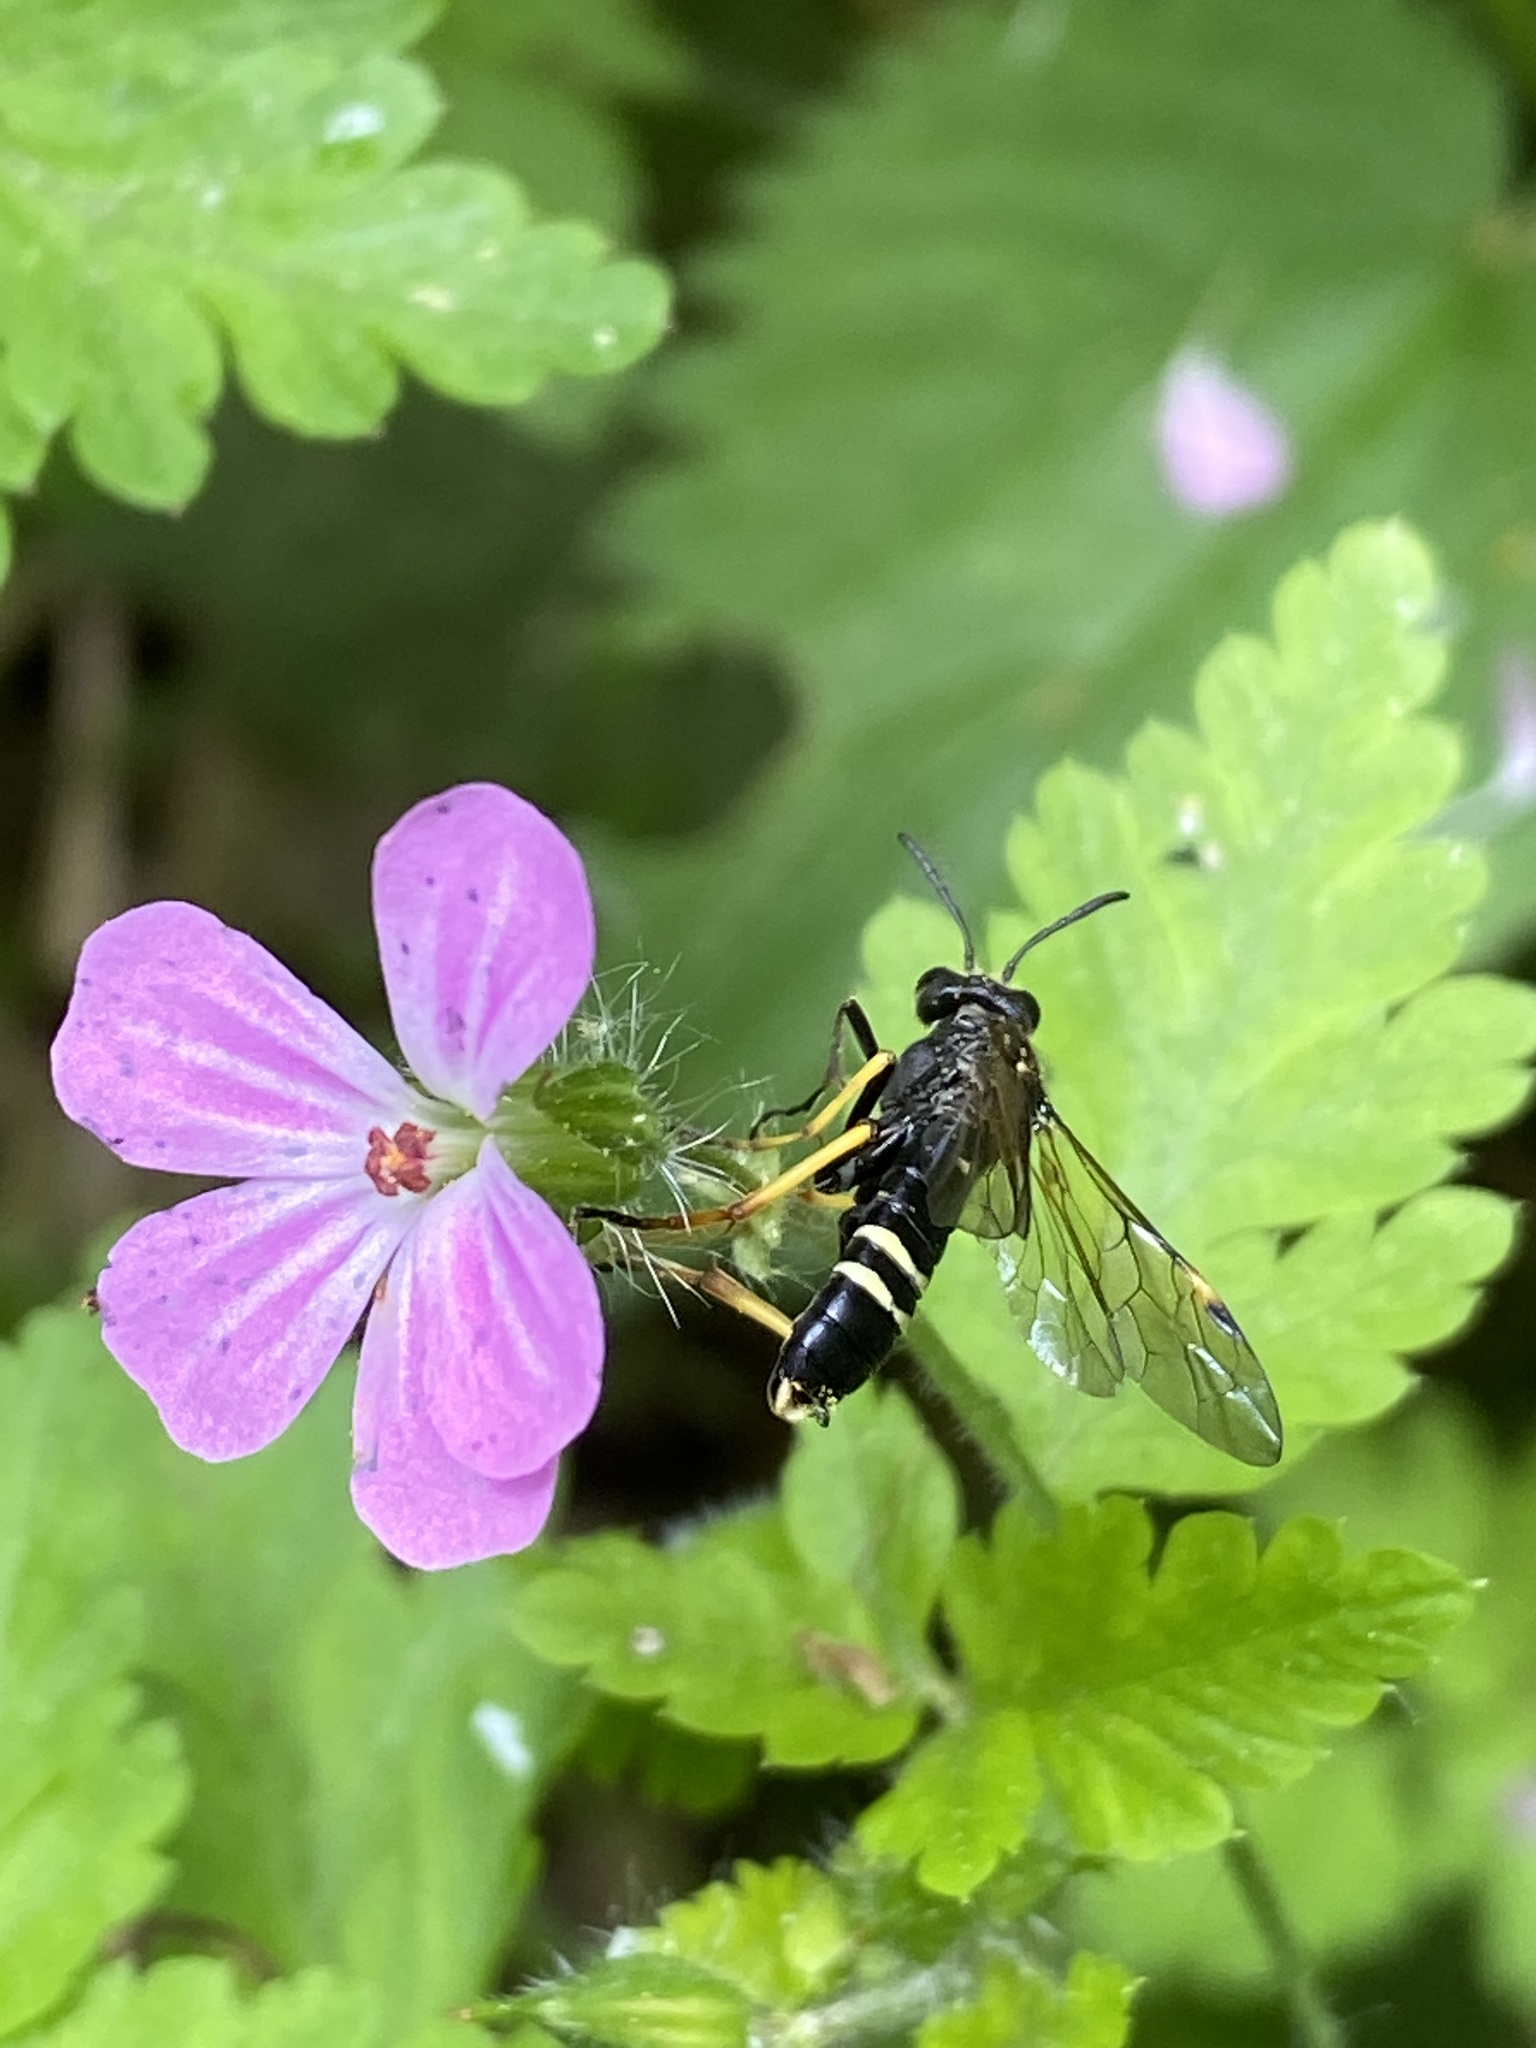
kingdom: Animalia
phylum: Arthropoda
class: Insecta
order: Hymenoptera
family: Tenthredinidae
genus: Tenthredo
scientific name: Tenthredo koehleri
